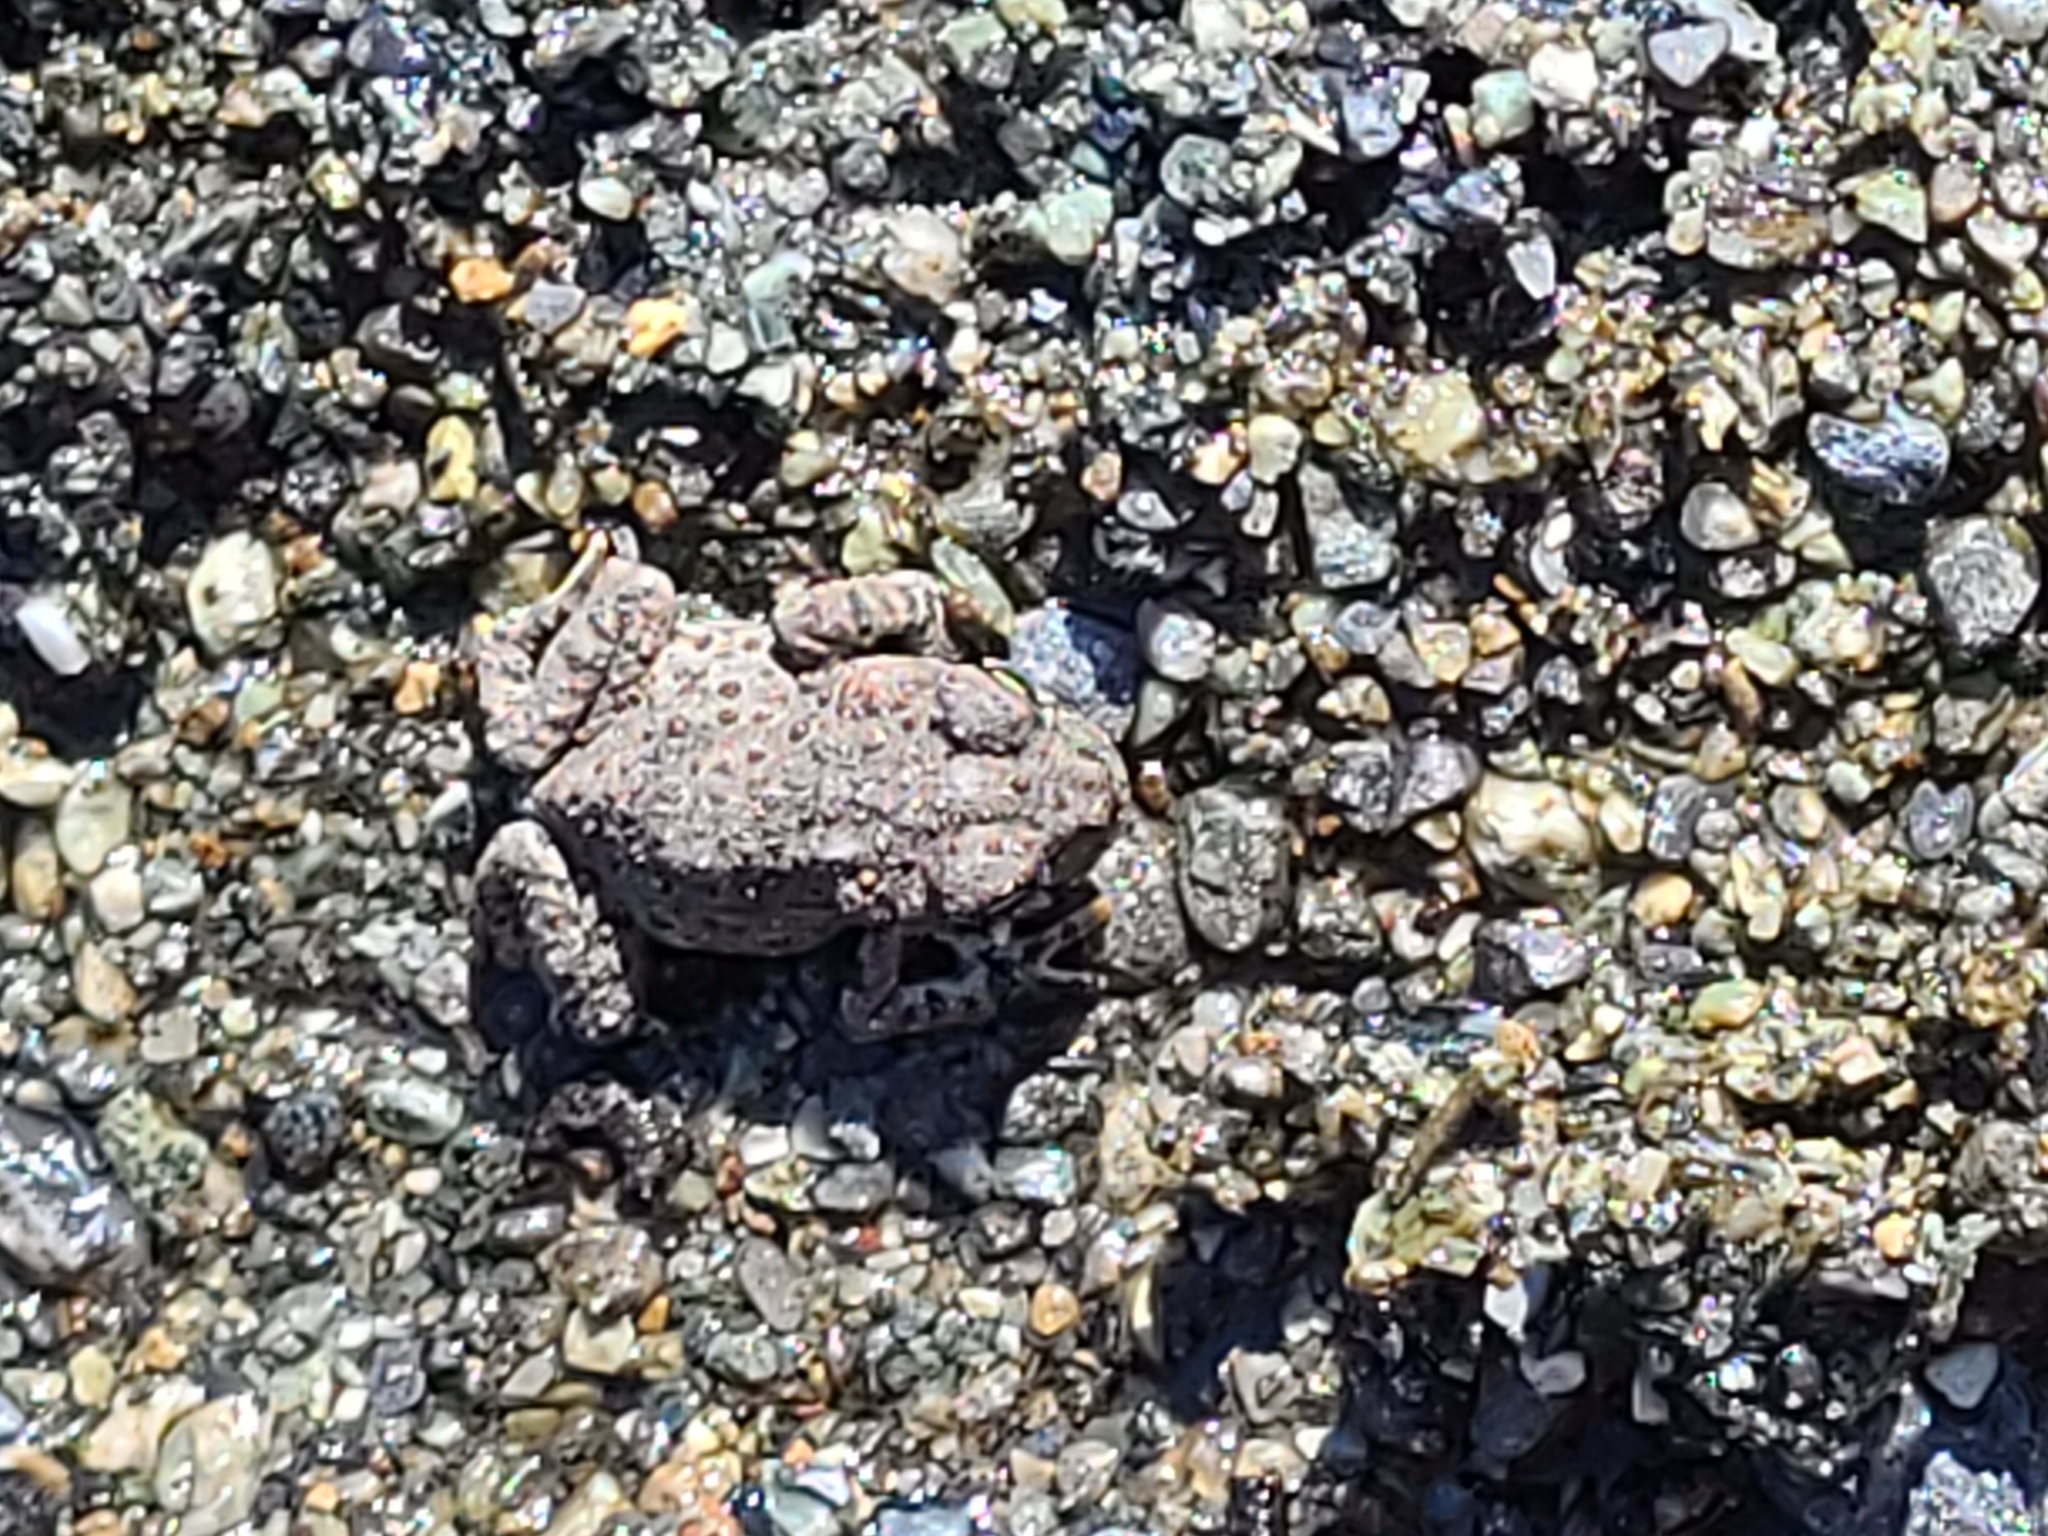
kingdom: Animalia
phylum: Chordata
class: Amphibia
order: Anura
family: Bufonidae
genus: Anaxyrus
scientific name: Anaxyrus boreas
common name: Western toad
